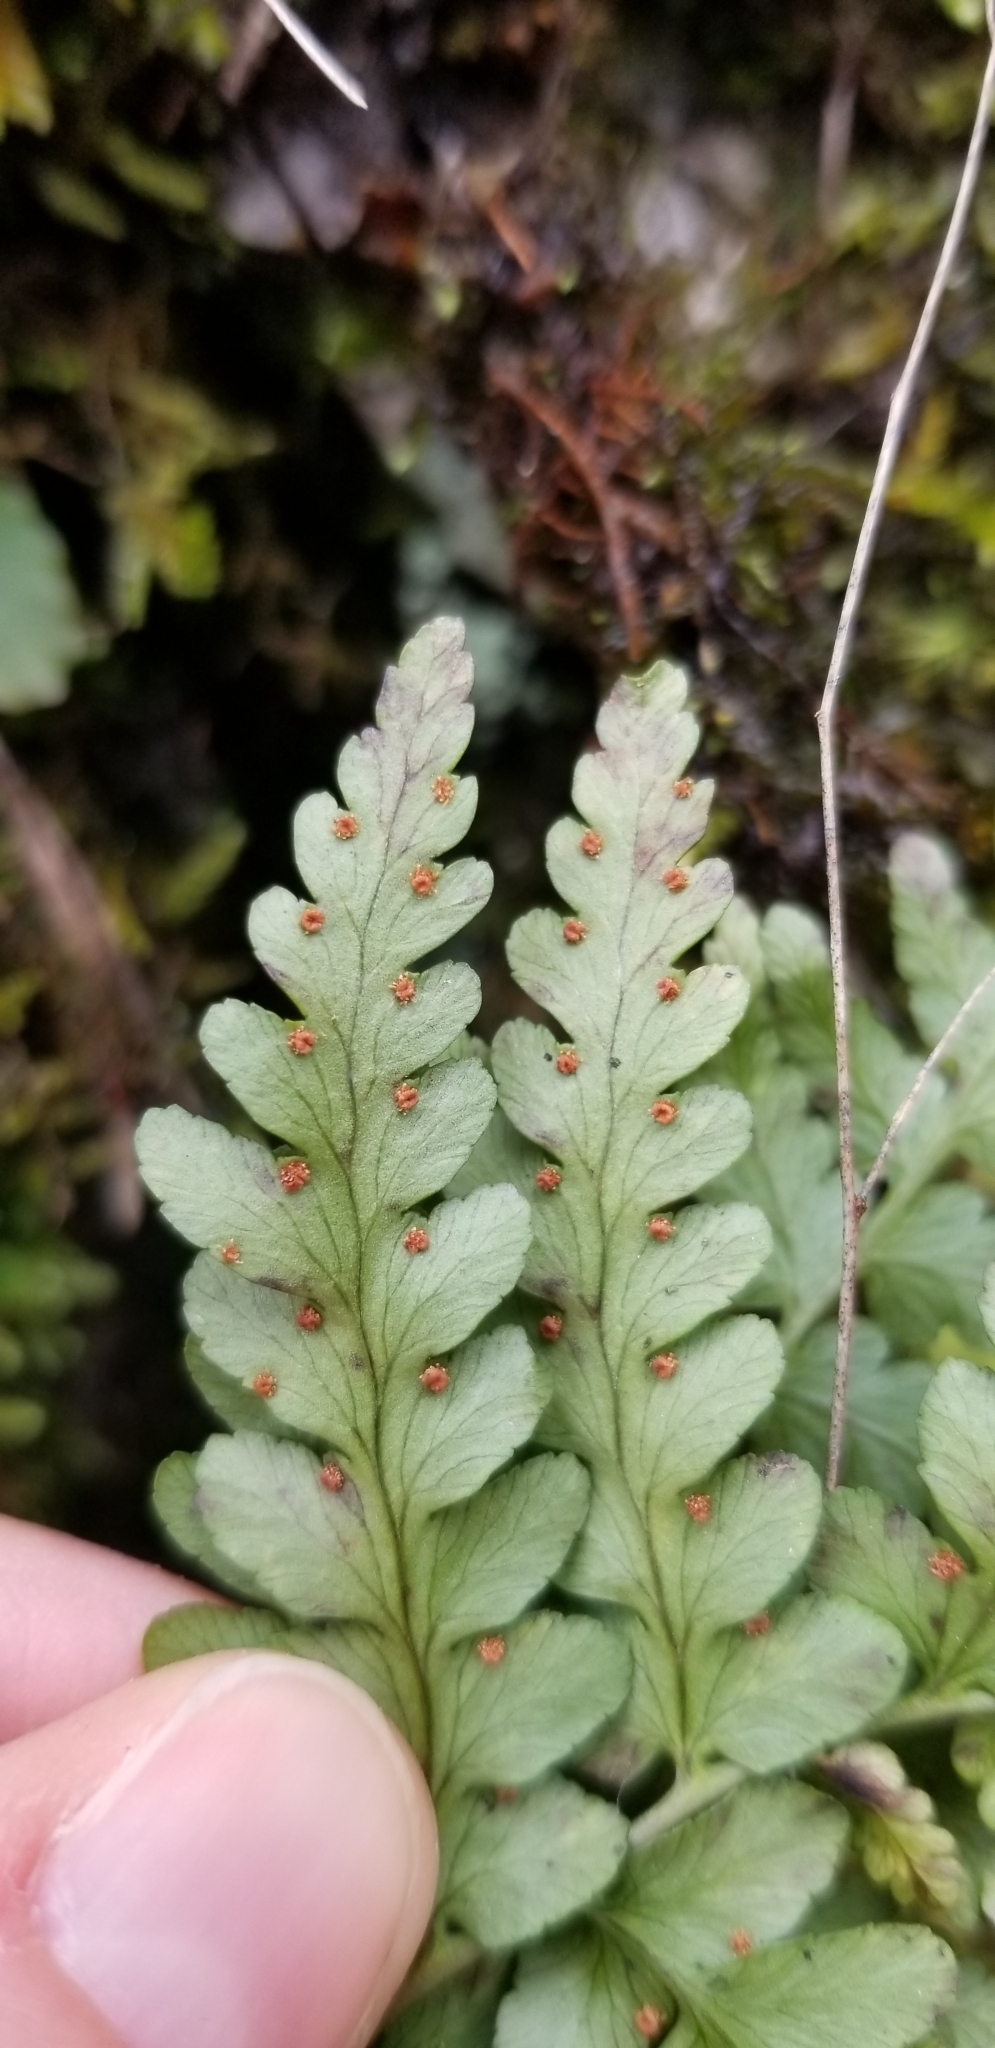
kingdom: Plantae
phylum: Tracheophyta
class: Polypodiopsida
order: Polypodiales
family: Dryopteridaceae
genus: Dryopteris
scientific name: Dryopteris marginalis
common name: Marginal wood fern
